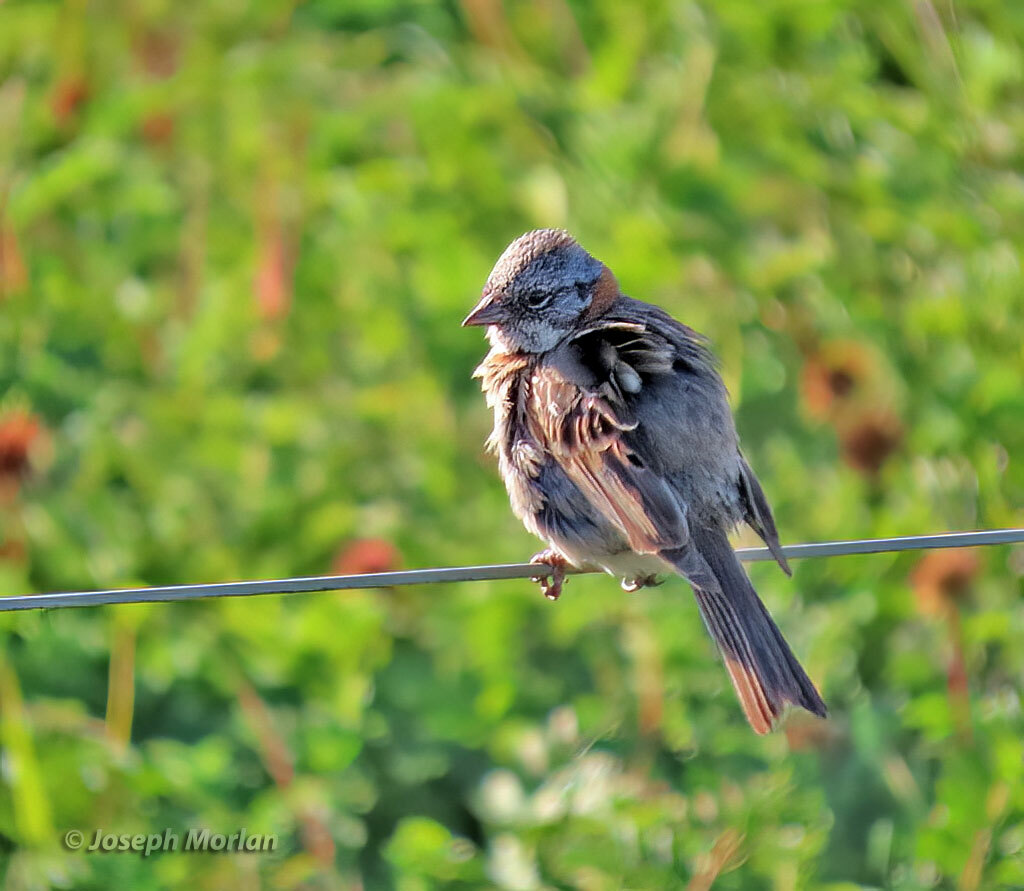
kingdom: Animalia
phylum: Chordata
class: Aves
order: Passeriformes
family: Passerellidae
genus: Zonotrichia
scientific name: Zonotrichia capensis
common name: Rufous-collared sparrow
